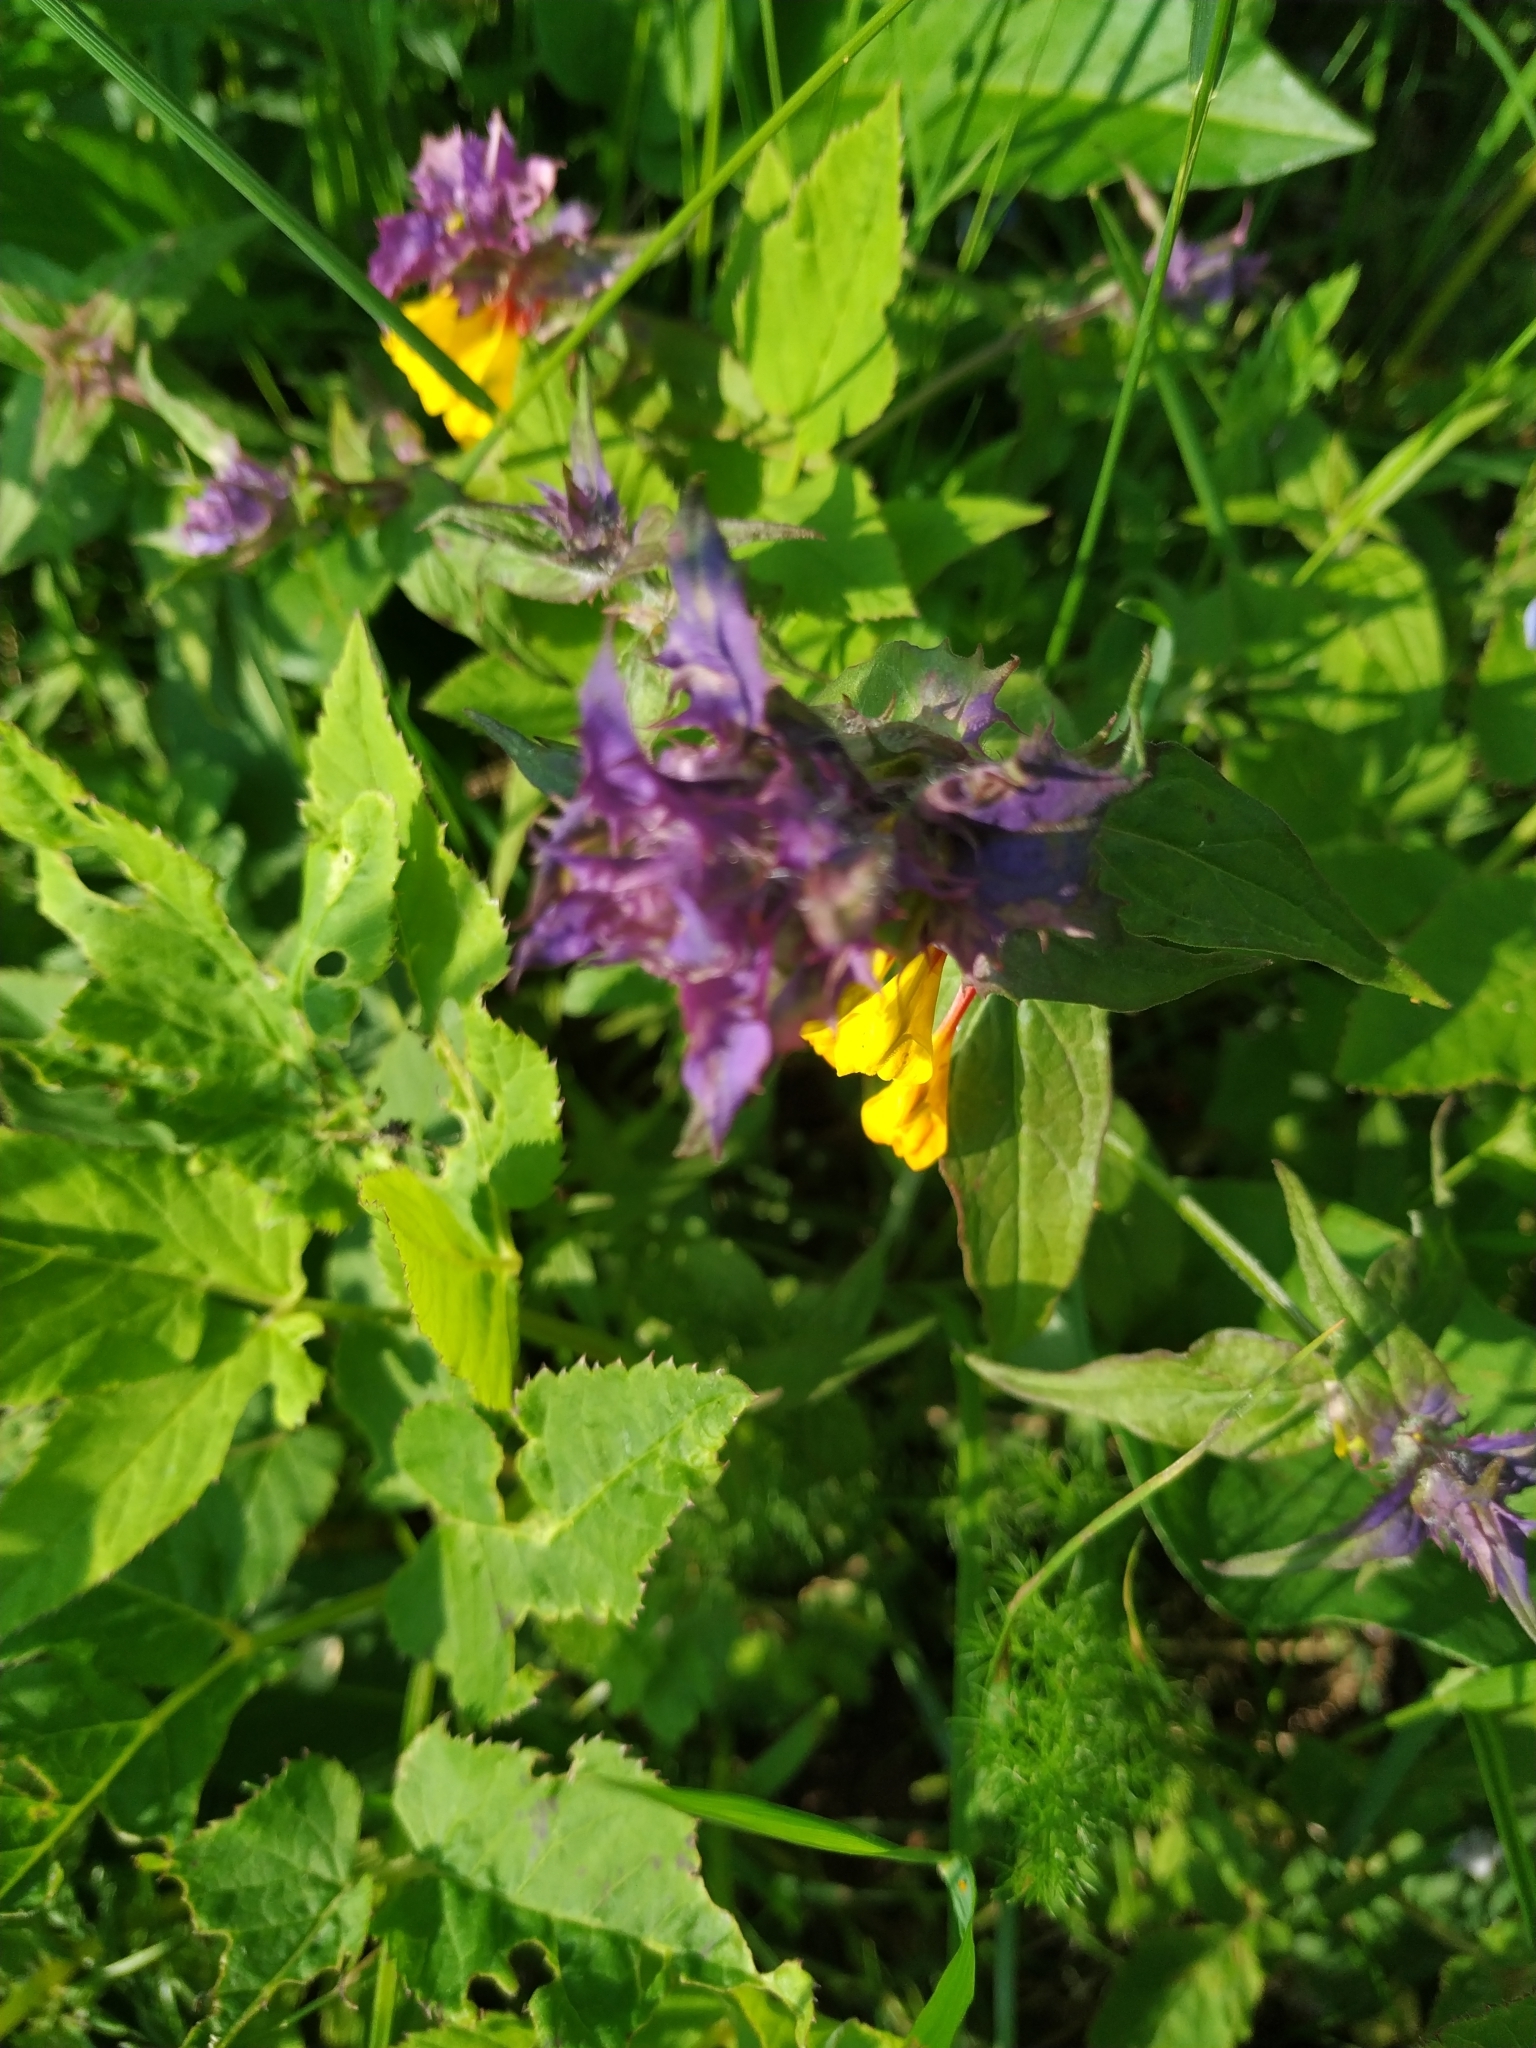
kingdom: Plantae
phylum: Tracheophyta
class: Magnoliopsida
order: Lamiales
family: Orobanchaceae
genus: Melampyrum
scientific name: Melampyrum nemorosum
